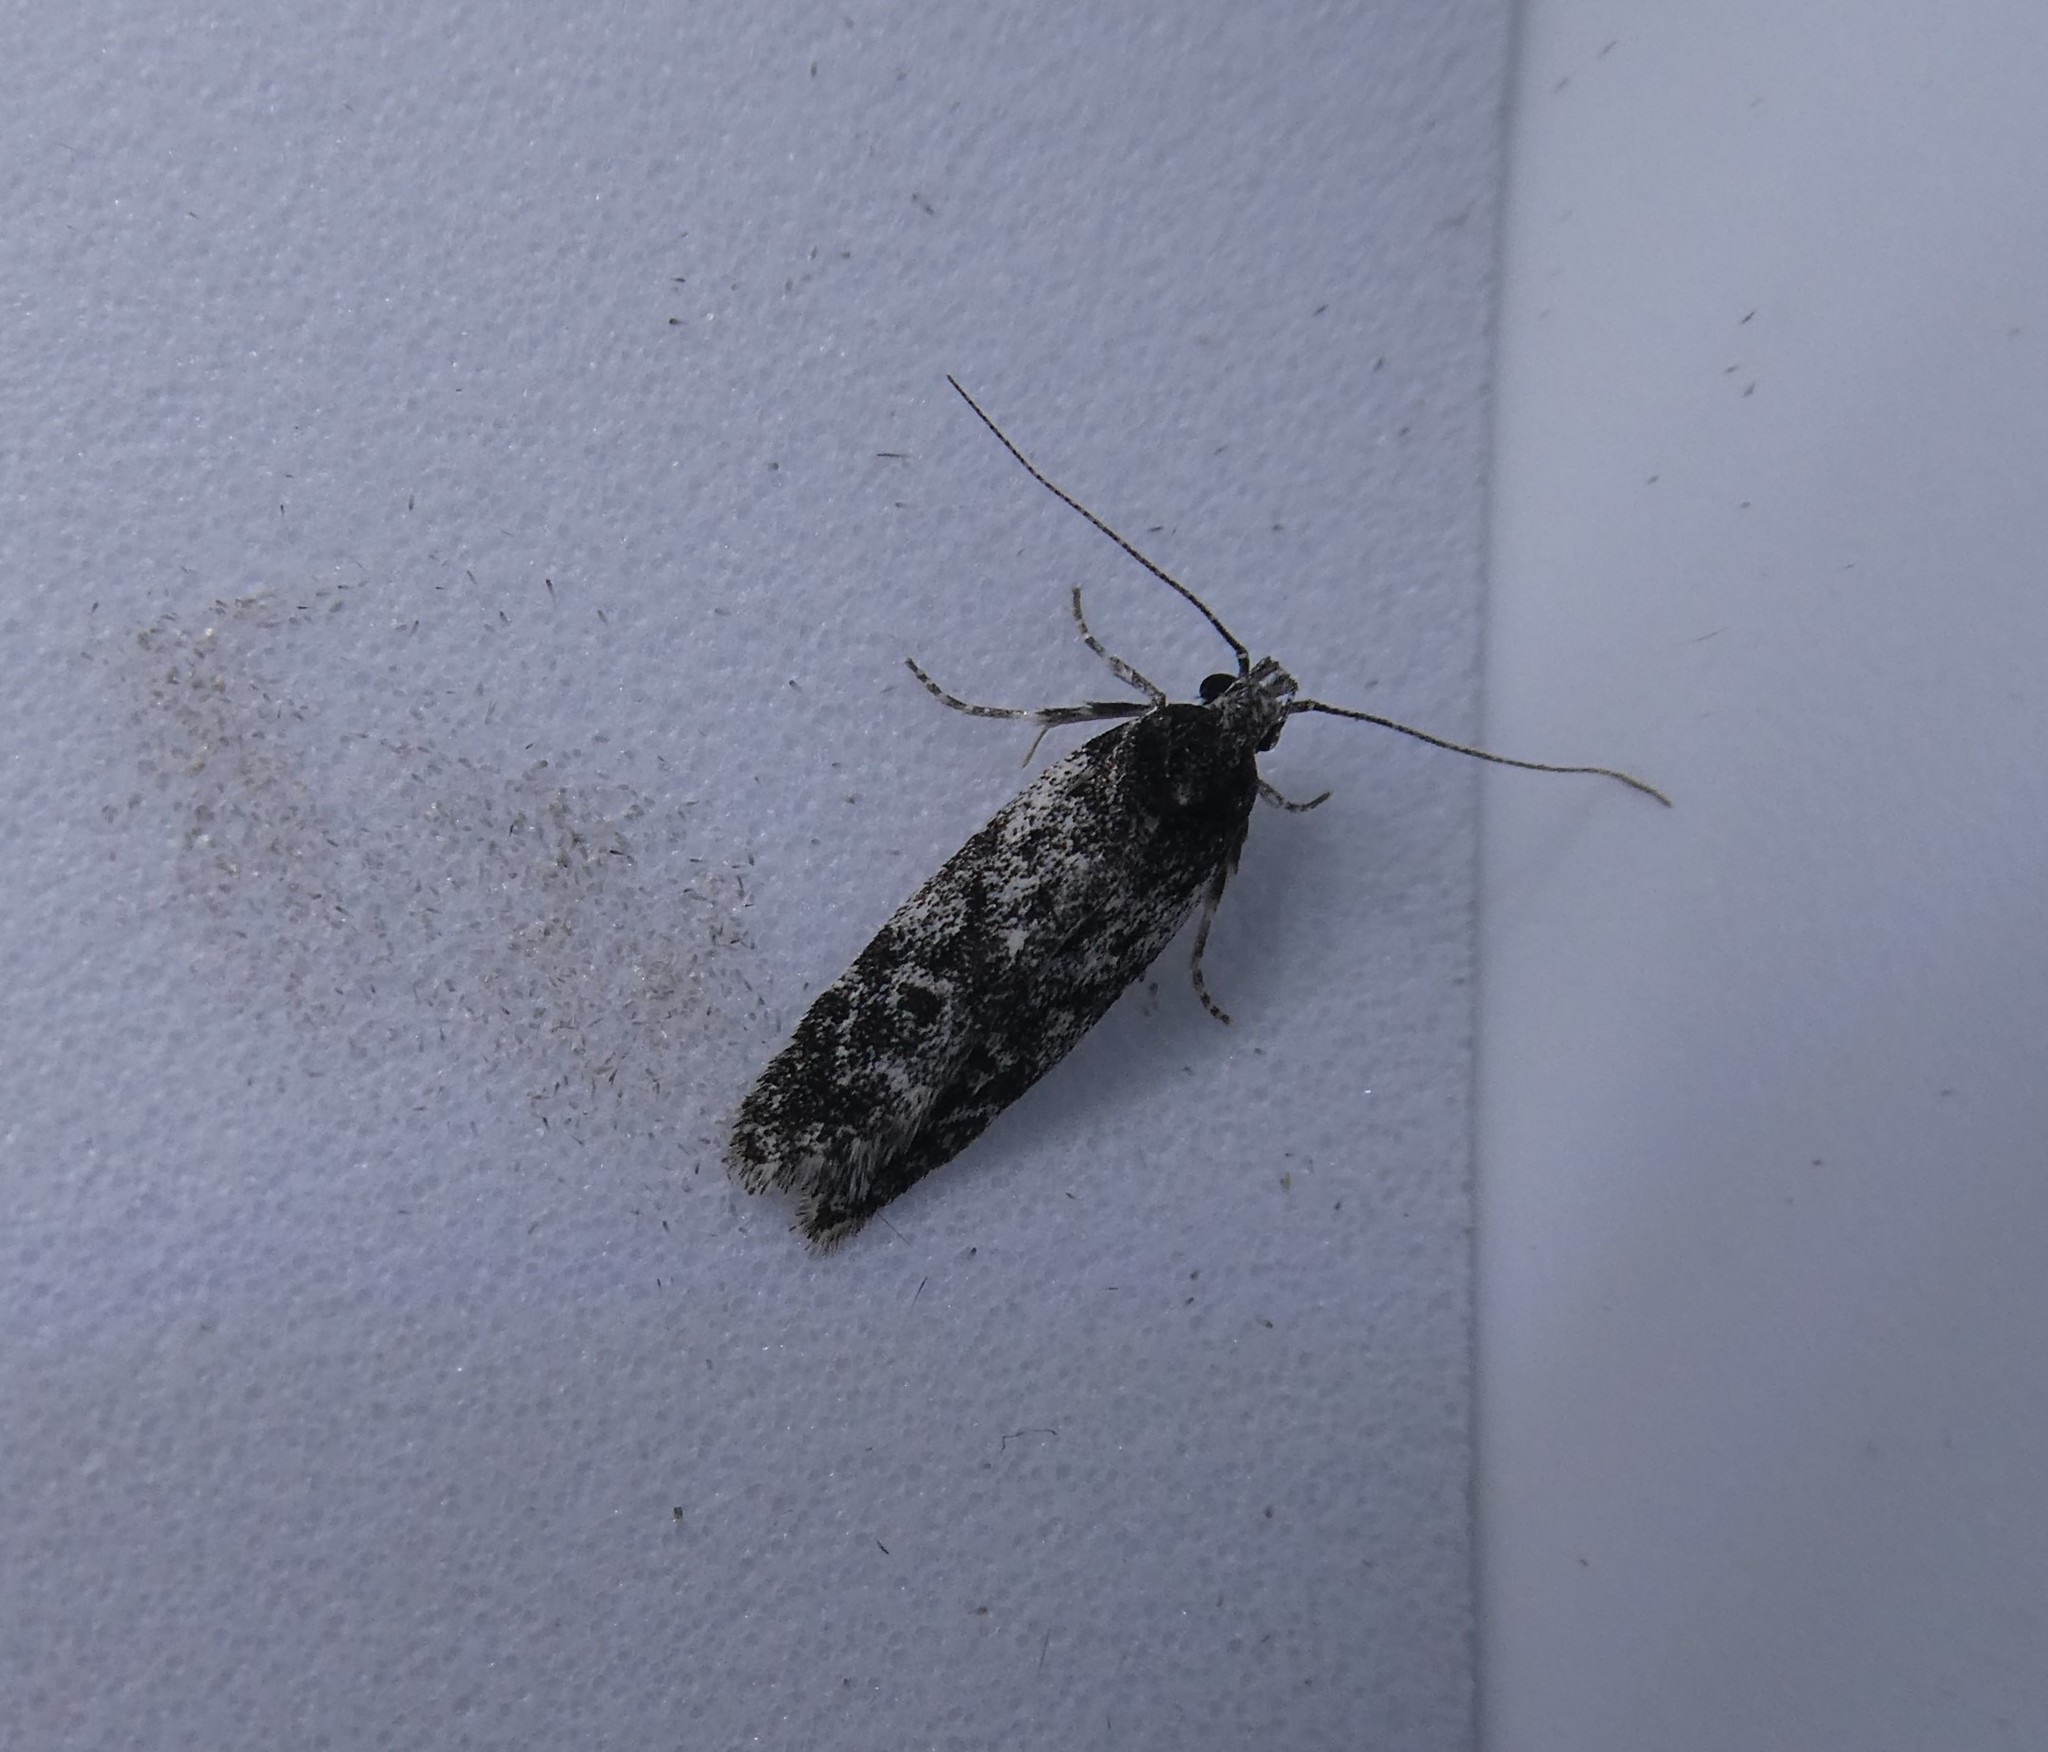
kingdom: Animalia
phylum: Arthropoda
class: Insecta
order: Lepidoptera
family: Gelechiidae
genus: Gelechia
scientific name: Gelechia lynceella
